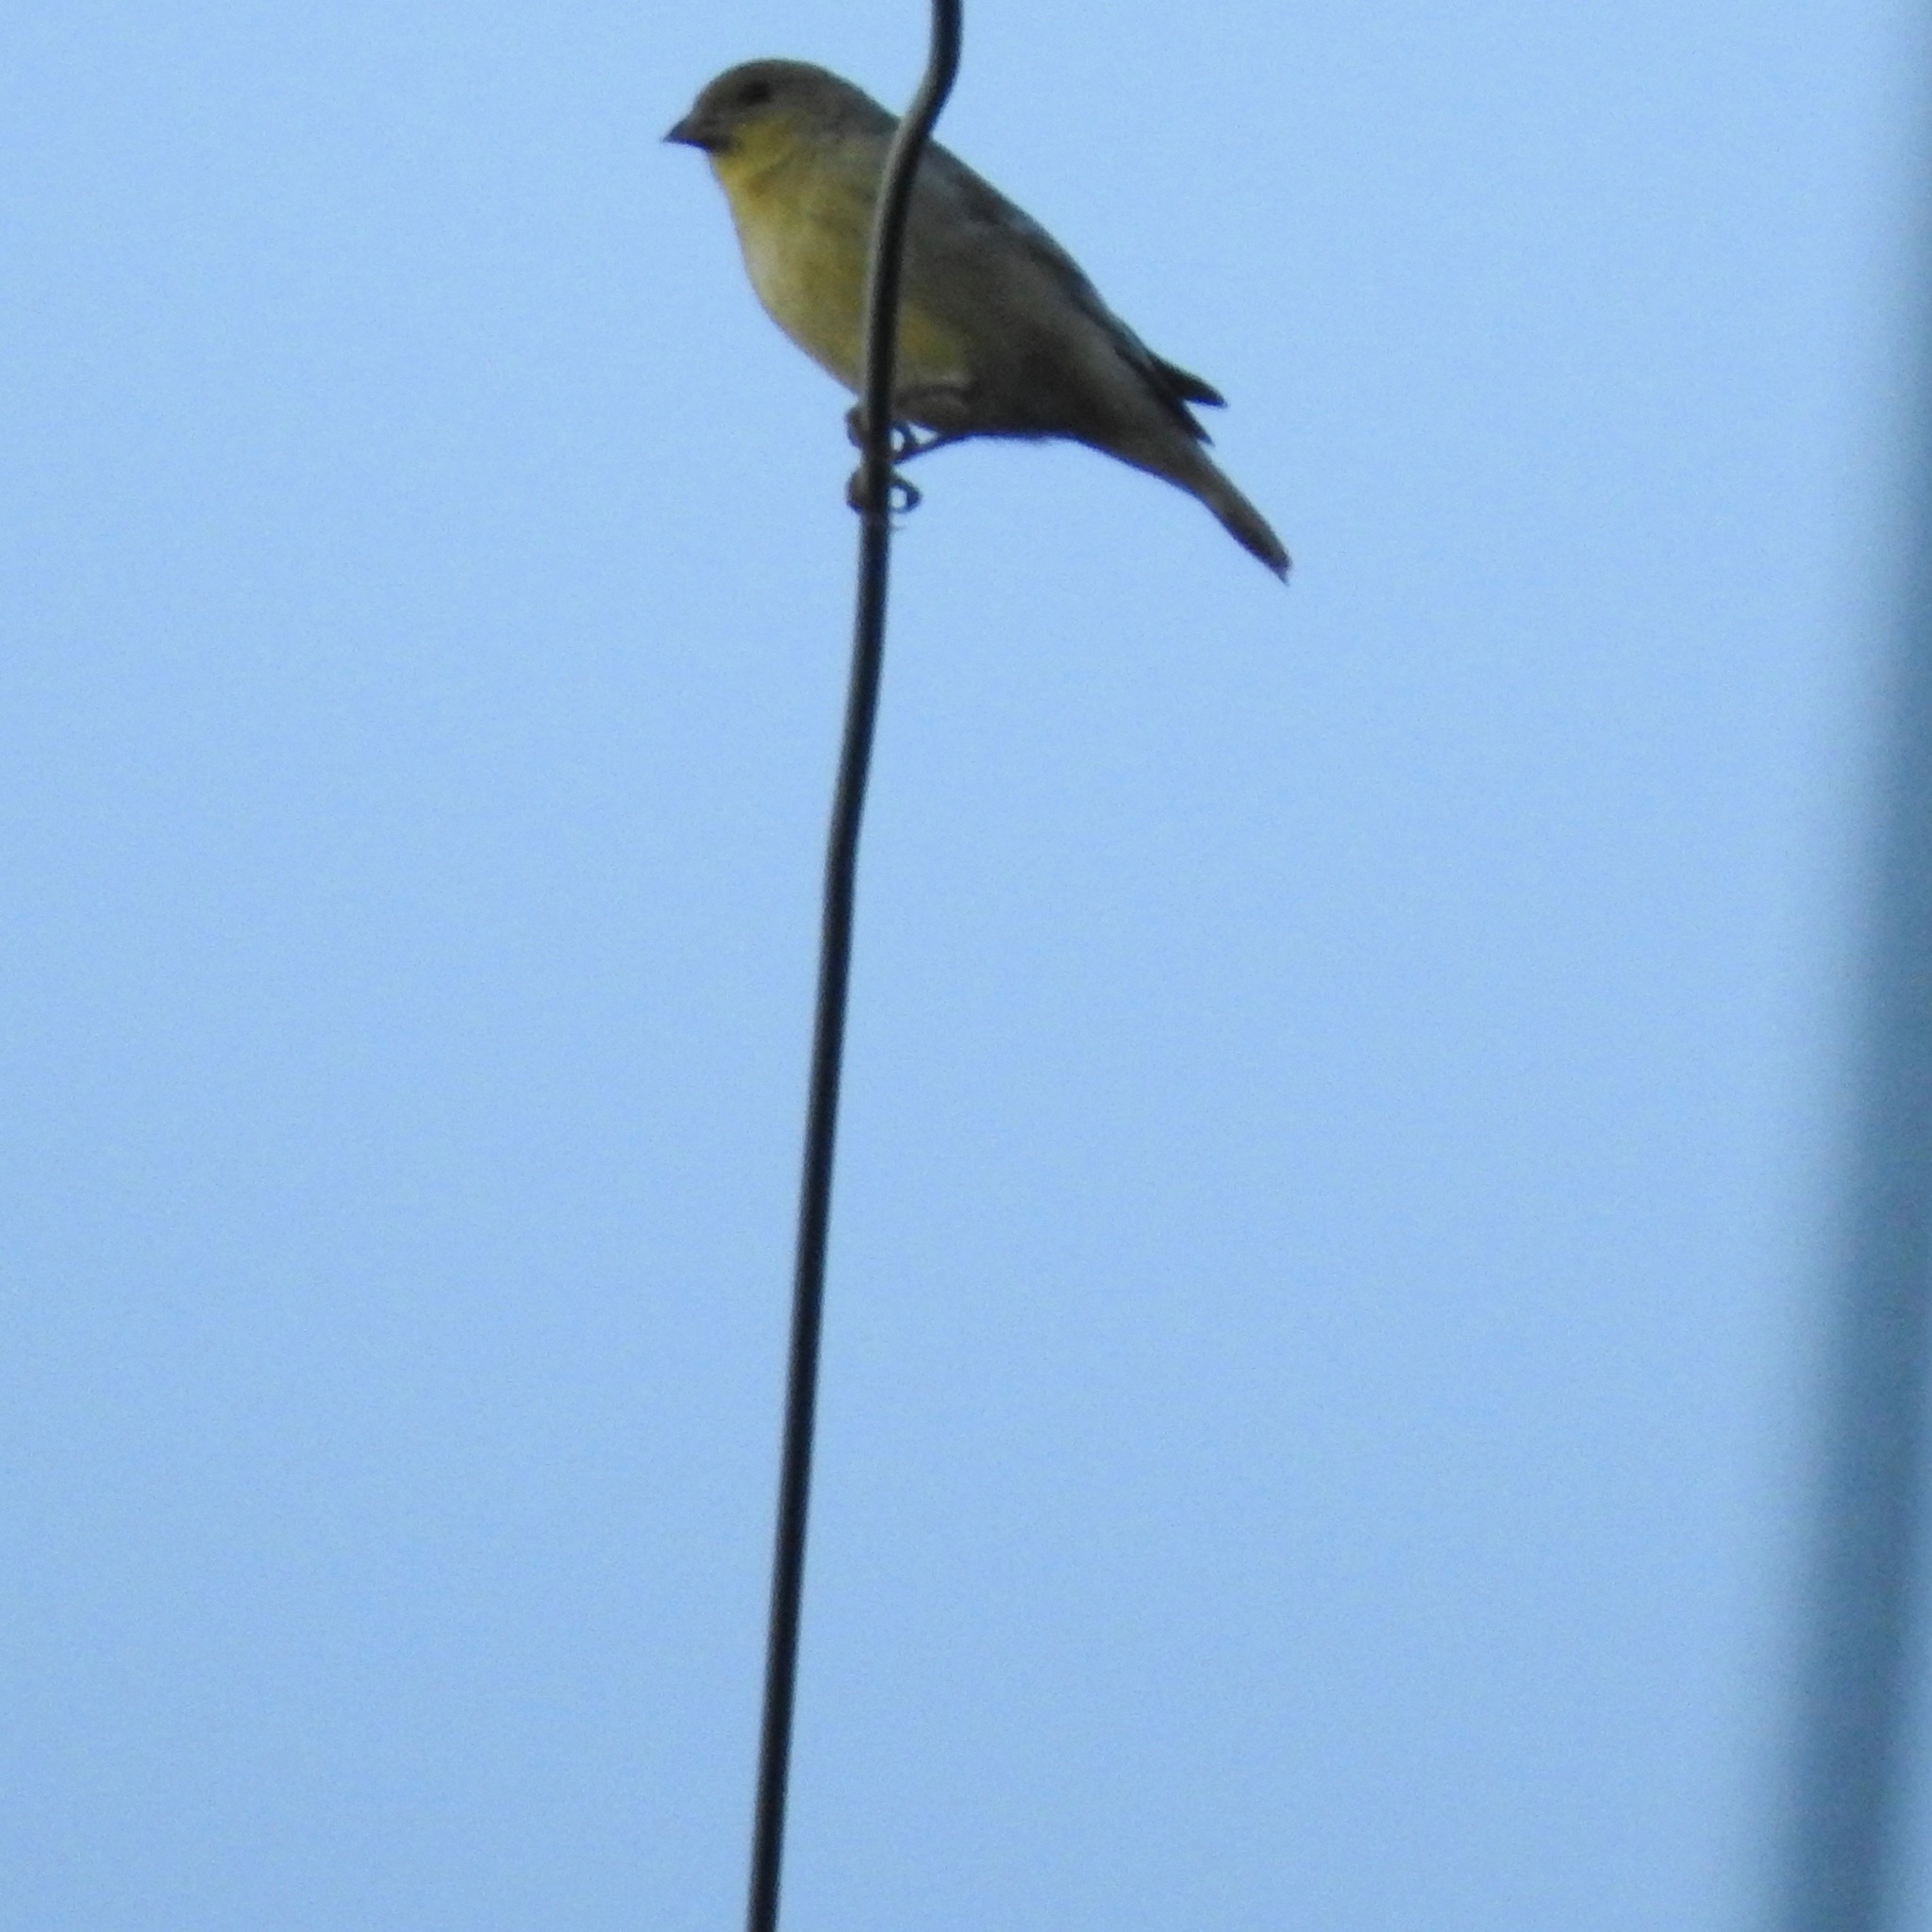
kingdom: Animalia
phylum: Chordata
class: Aves
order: Passeriformes
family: Fringillidae
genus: Spinus
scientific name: Spinus psaltria
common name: Lesser goldfinch
